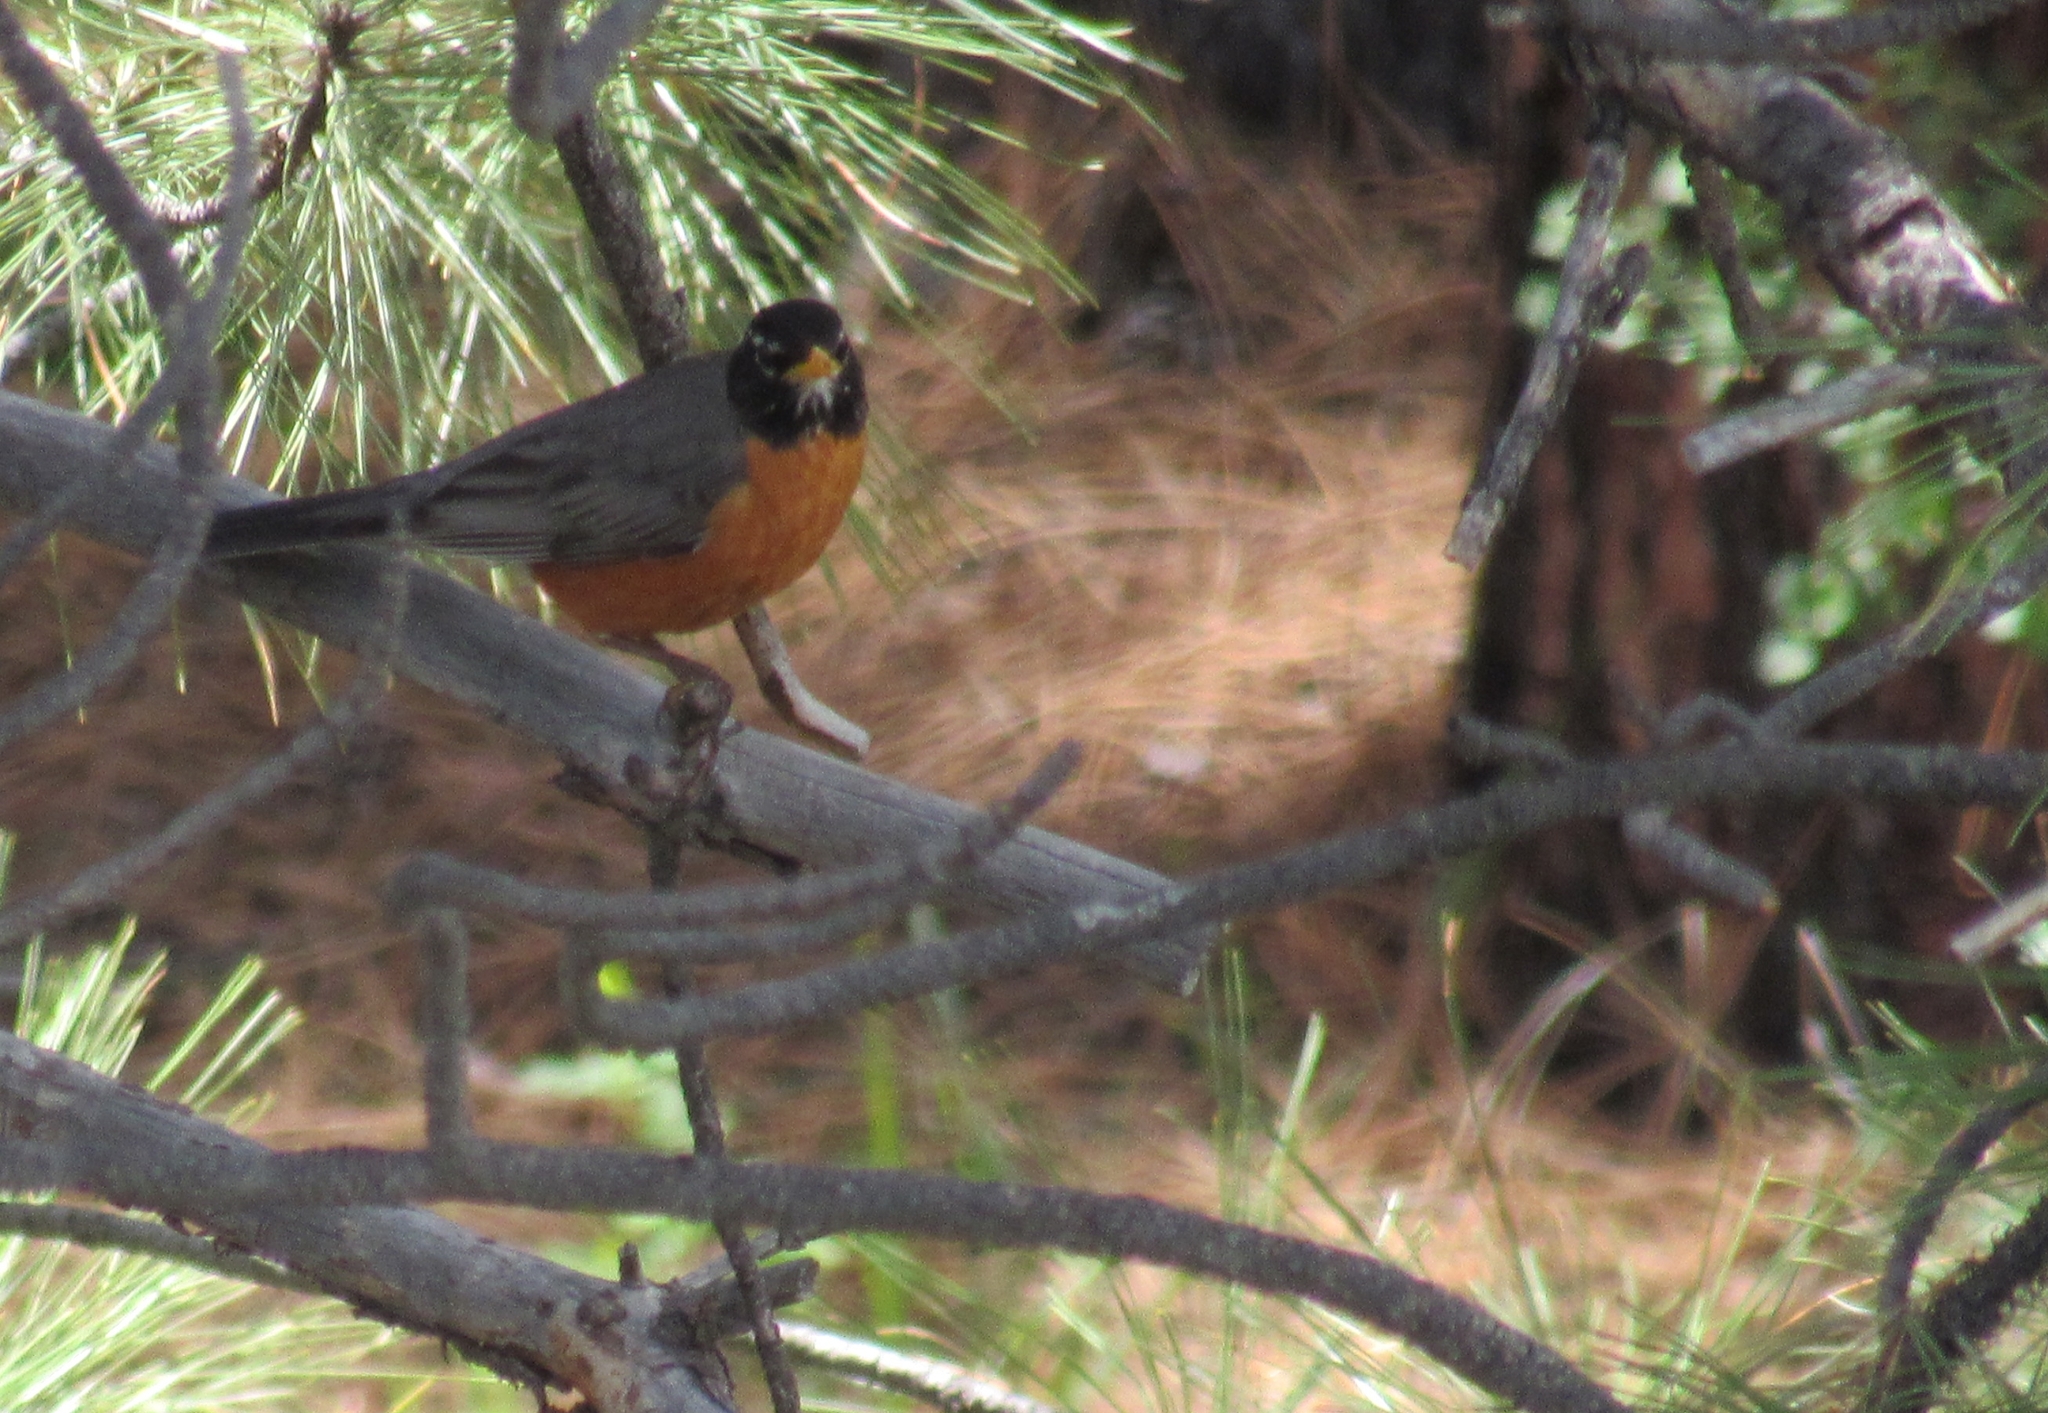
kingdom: Animalia
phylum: Chordata
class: Aves
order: Passeriformes
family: Turdidae
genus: Turdus
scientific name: Turdus migratorius
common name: American robin
